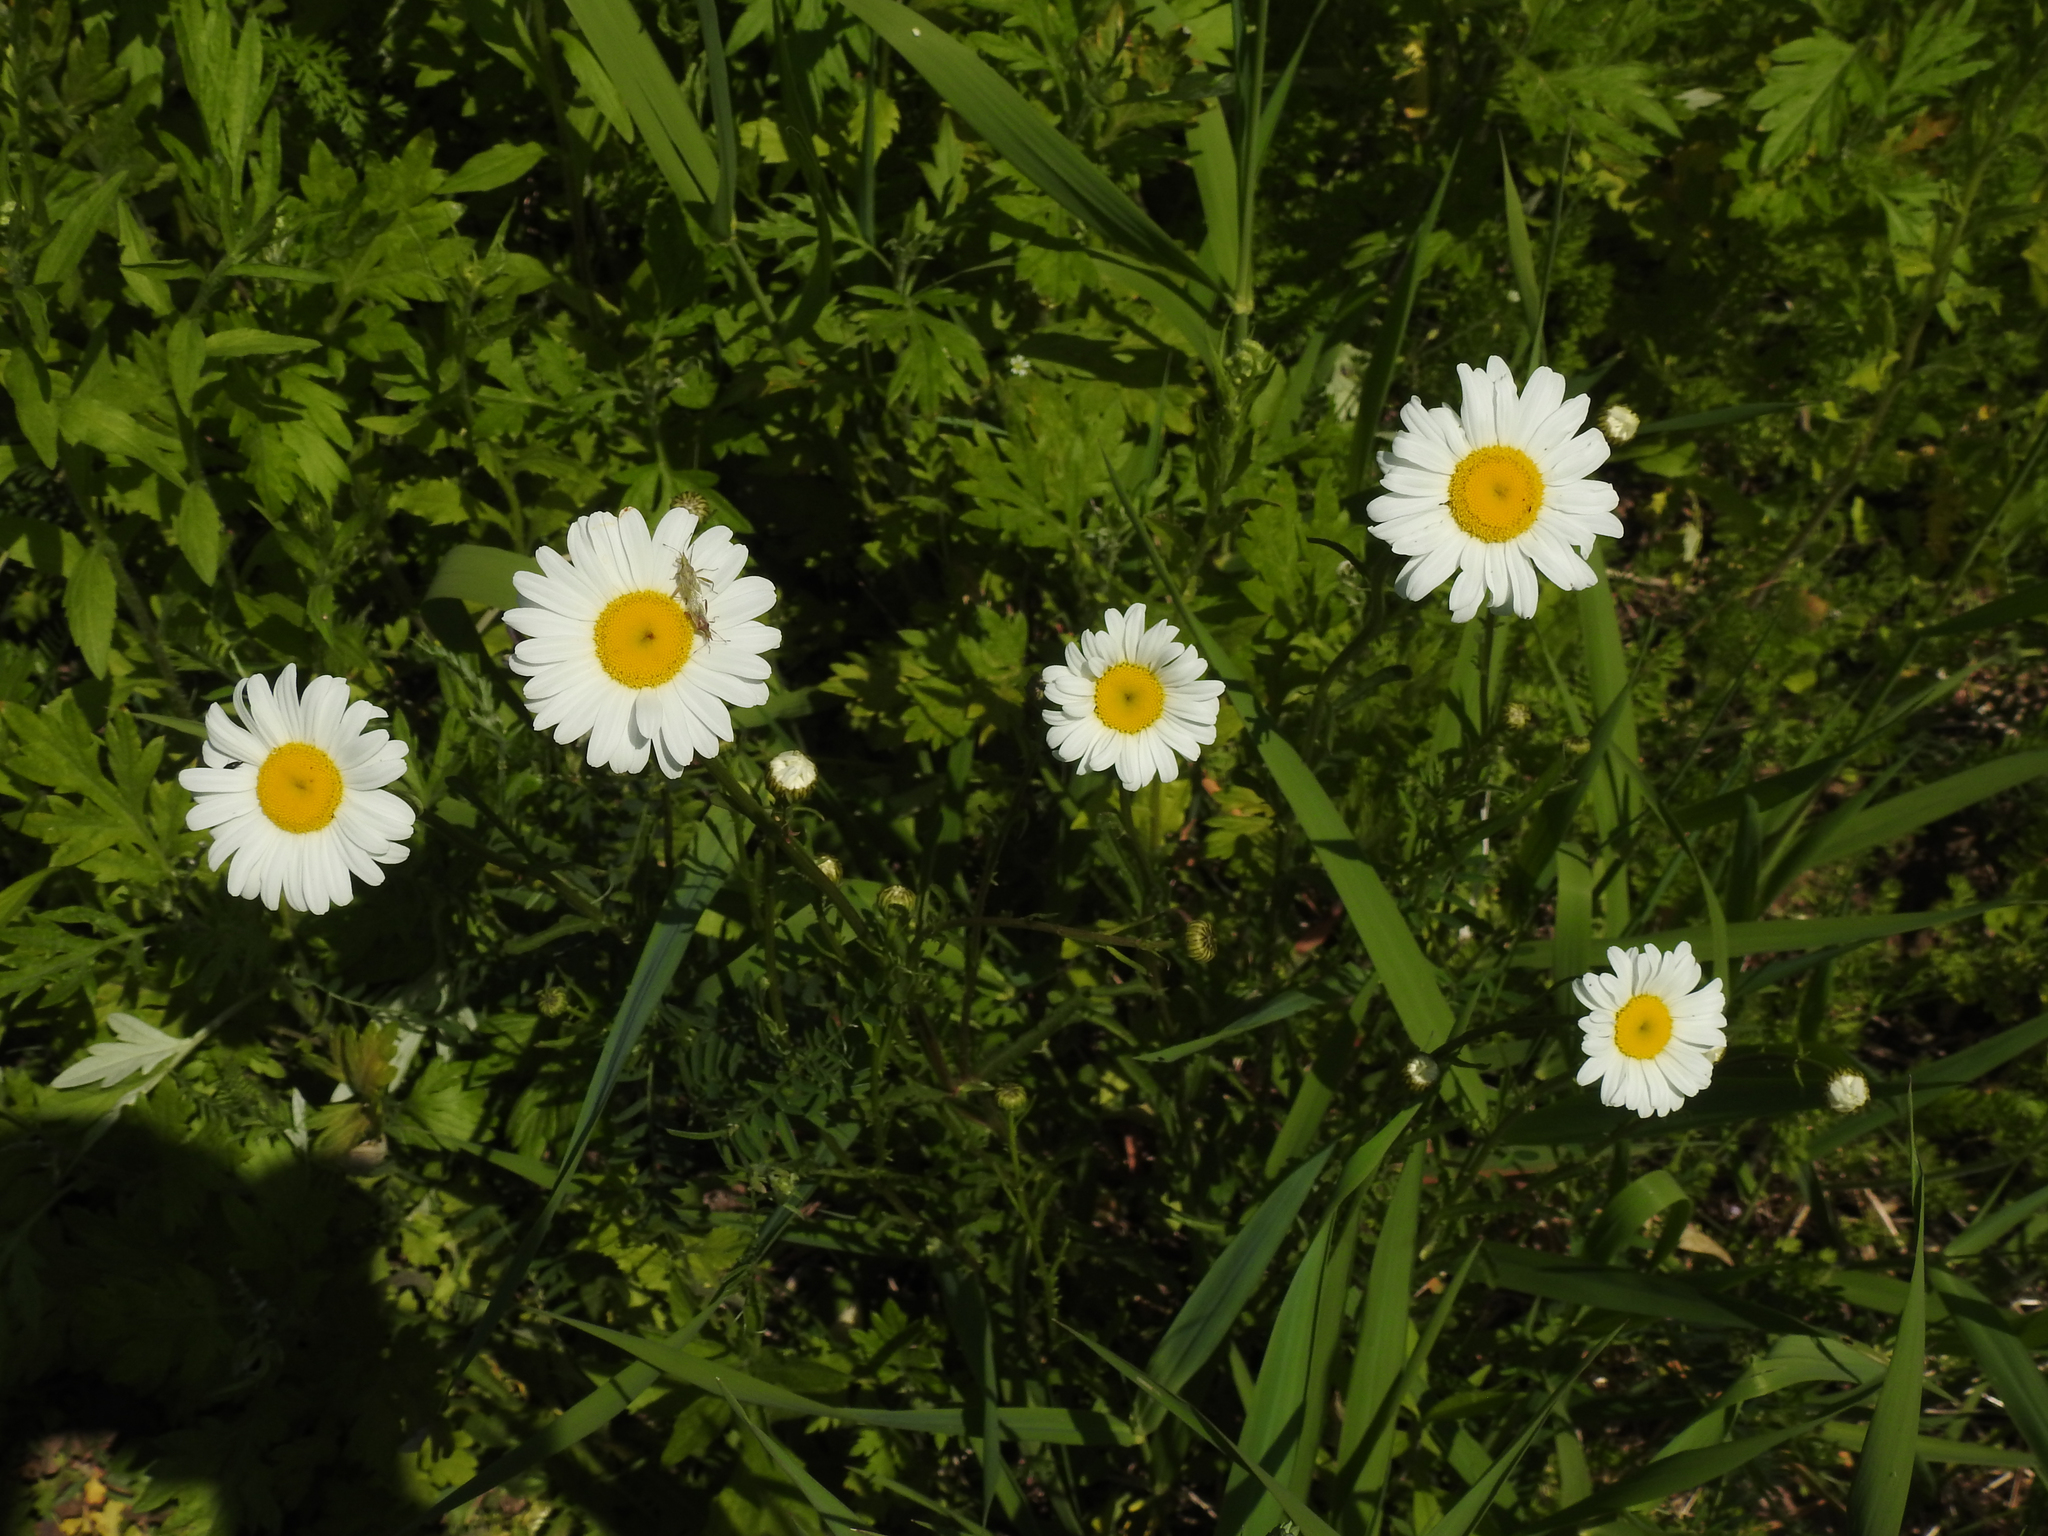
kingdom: Plantae
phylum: Tracheophyta
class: Magnoliopsida
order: Asterales
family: Asteraceae
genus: Leucanthemum
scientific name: Leucanthemum vulgare
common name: Oxeye daisy
